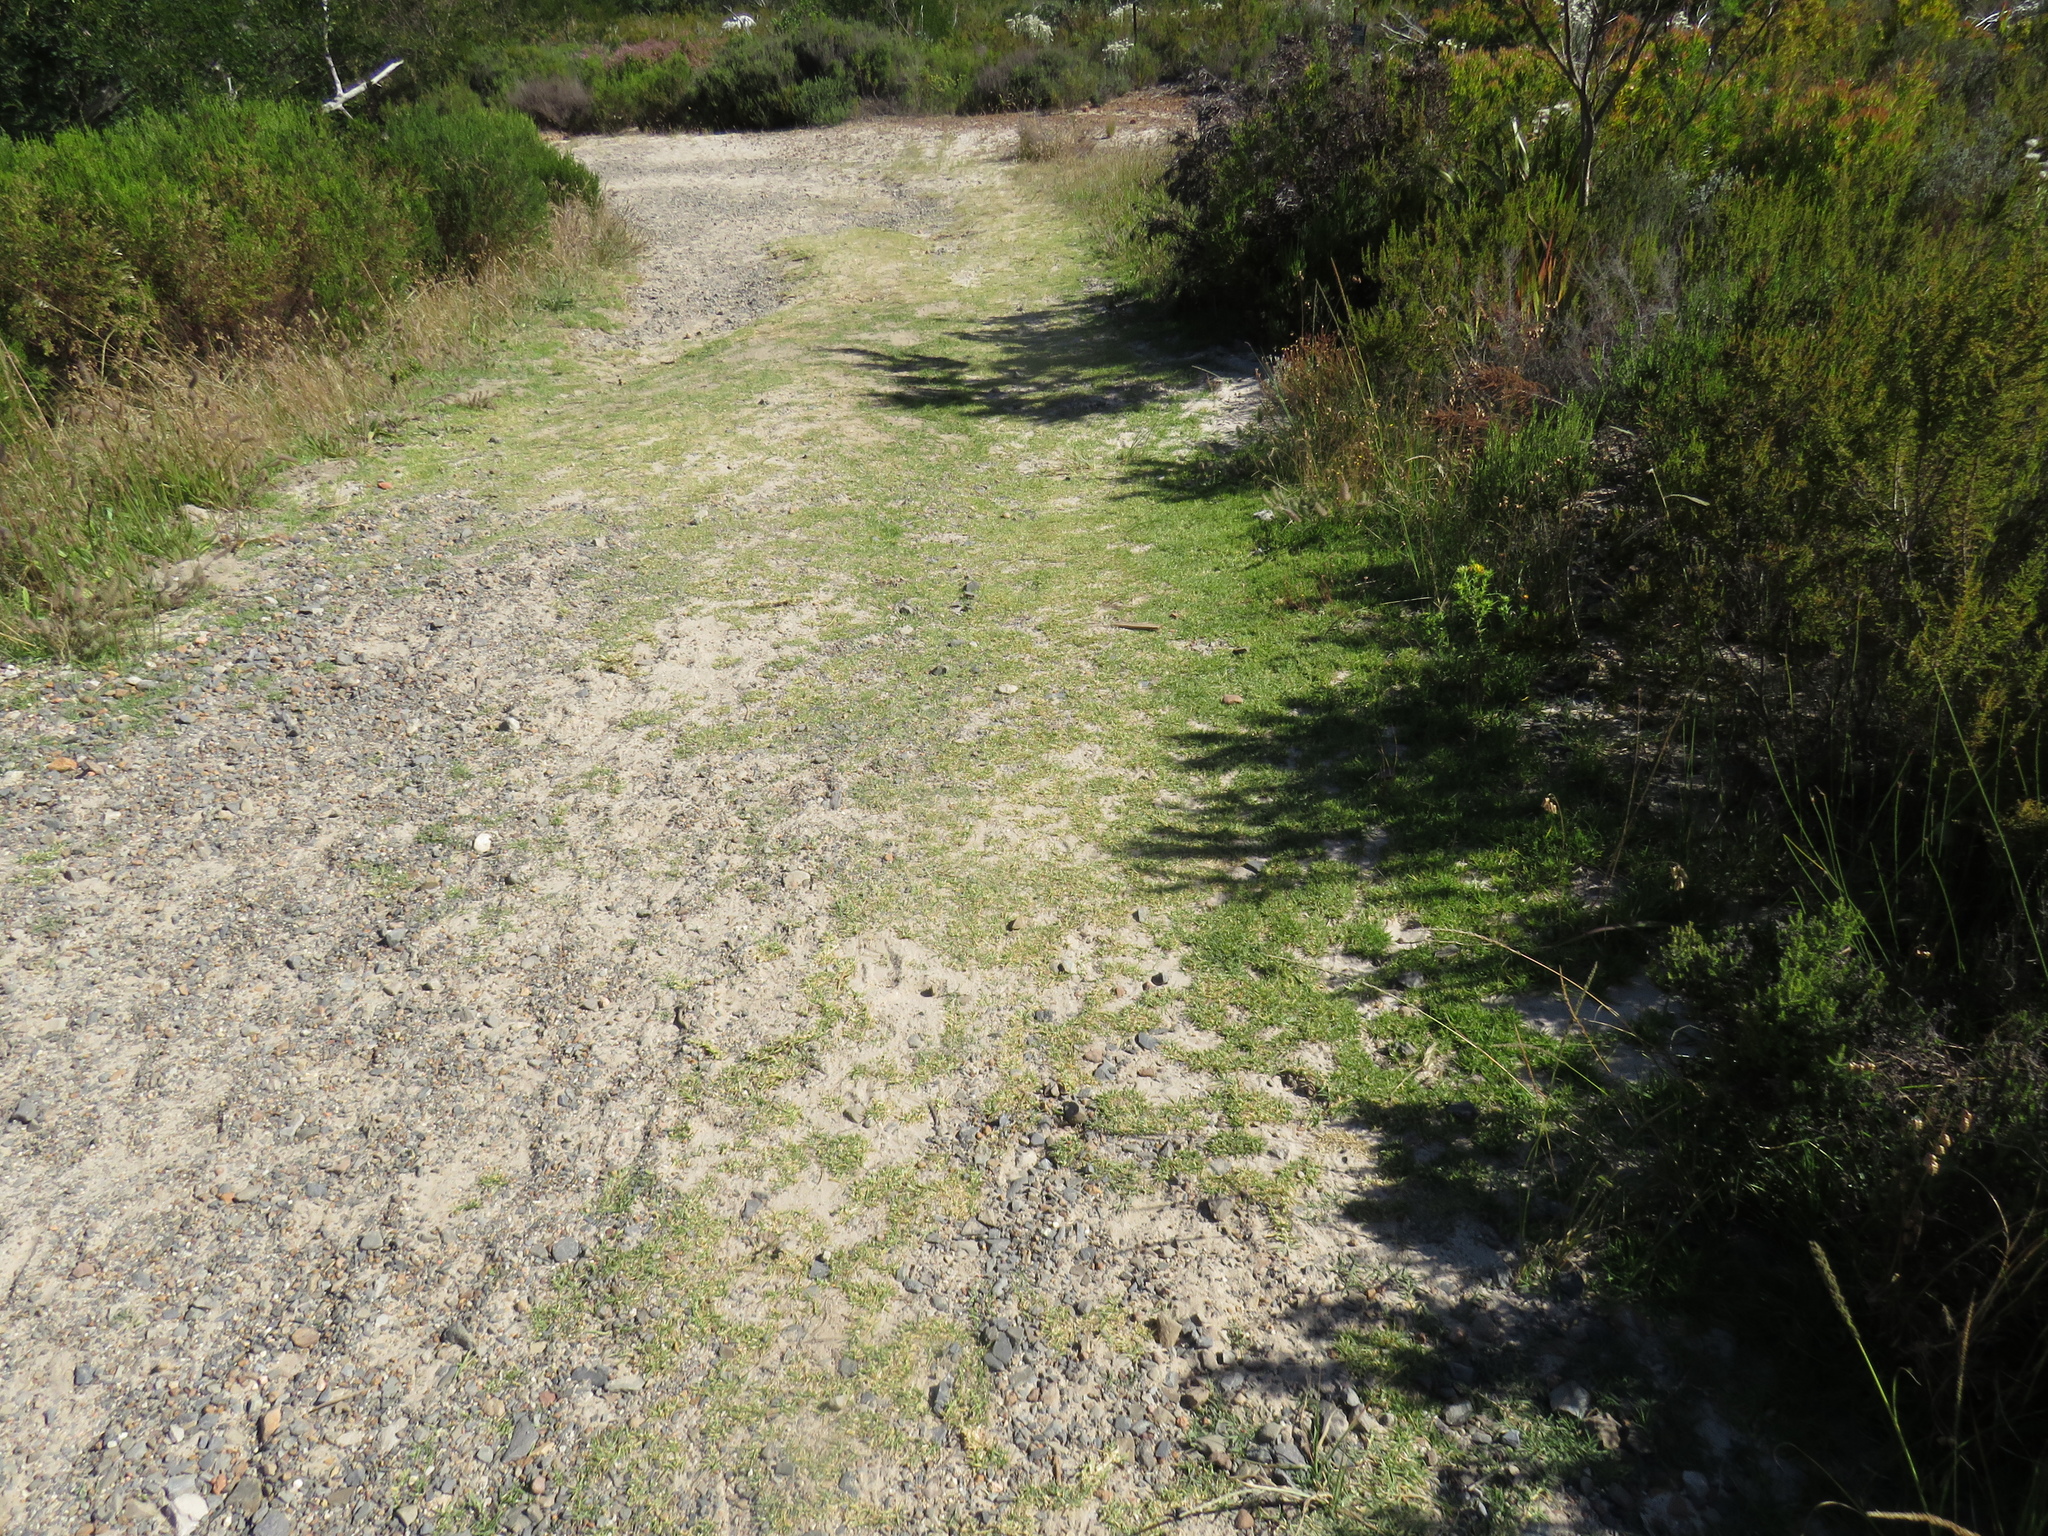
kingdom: Plantae
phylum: Tracheophyta
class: Liliopsida
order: Poales
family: Poaceae
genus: Cenchrus
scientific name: Cenchrus clandestinus
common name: Kikuyugrass
